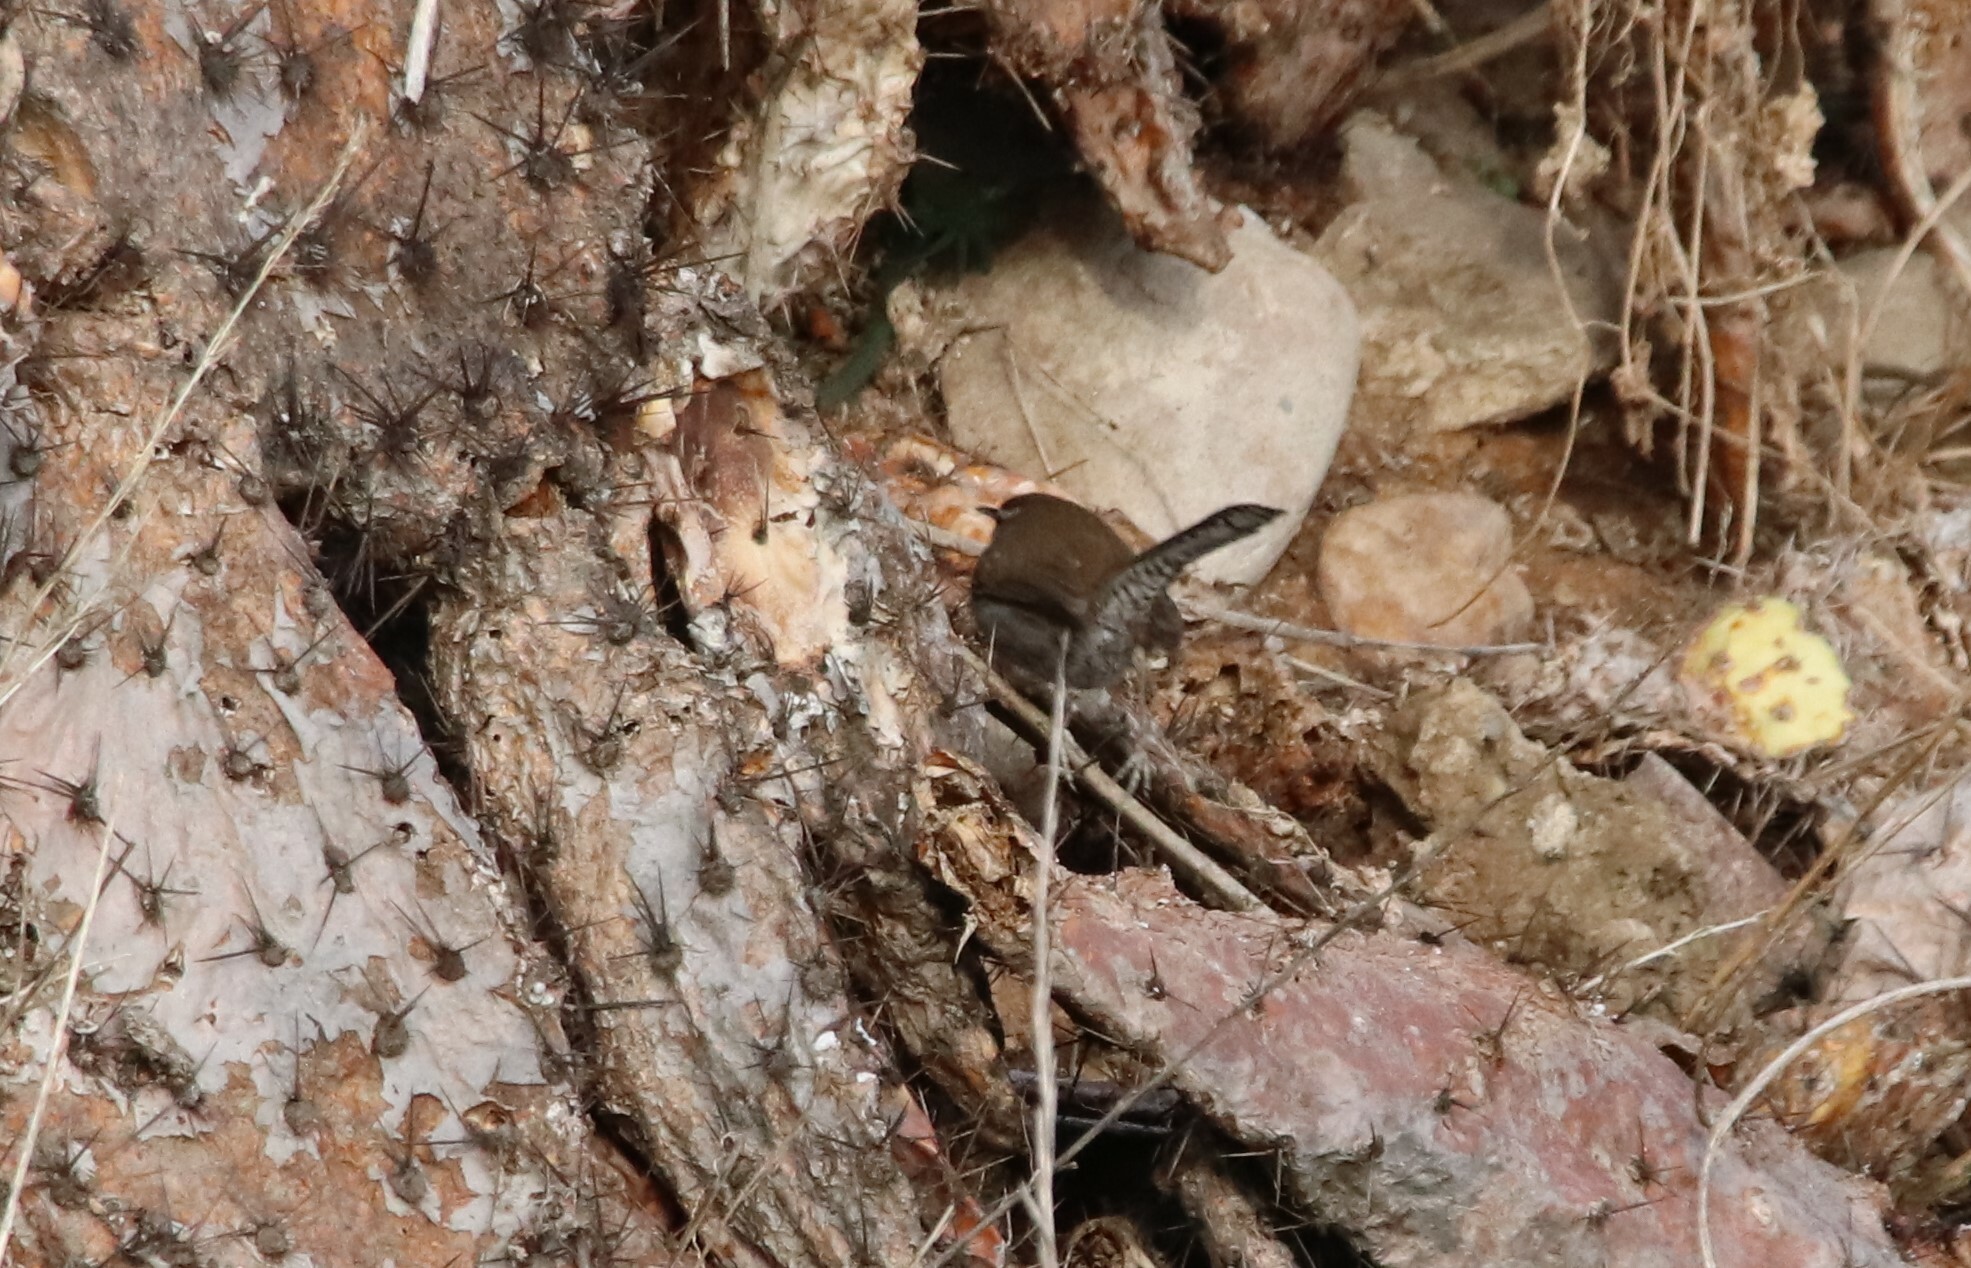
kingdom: Animalia
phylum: Chordata
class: Aves
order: Passeriformes
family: Troglodytidae
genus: Thryomanes
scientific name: Thryomanes bewickii
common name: Bewick's wren
